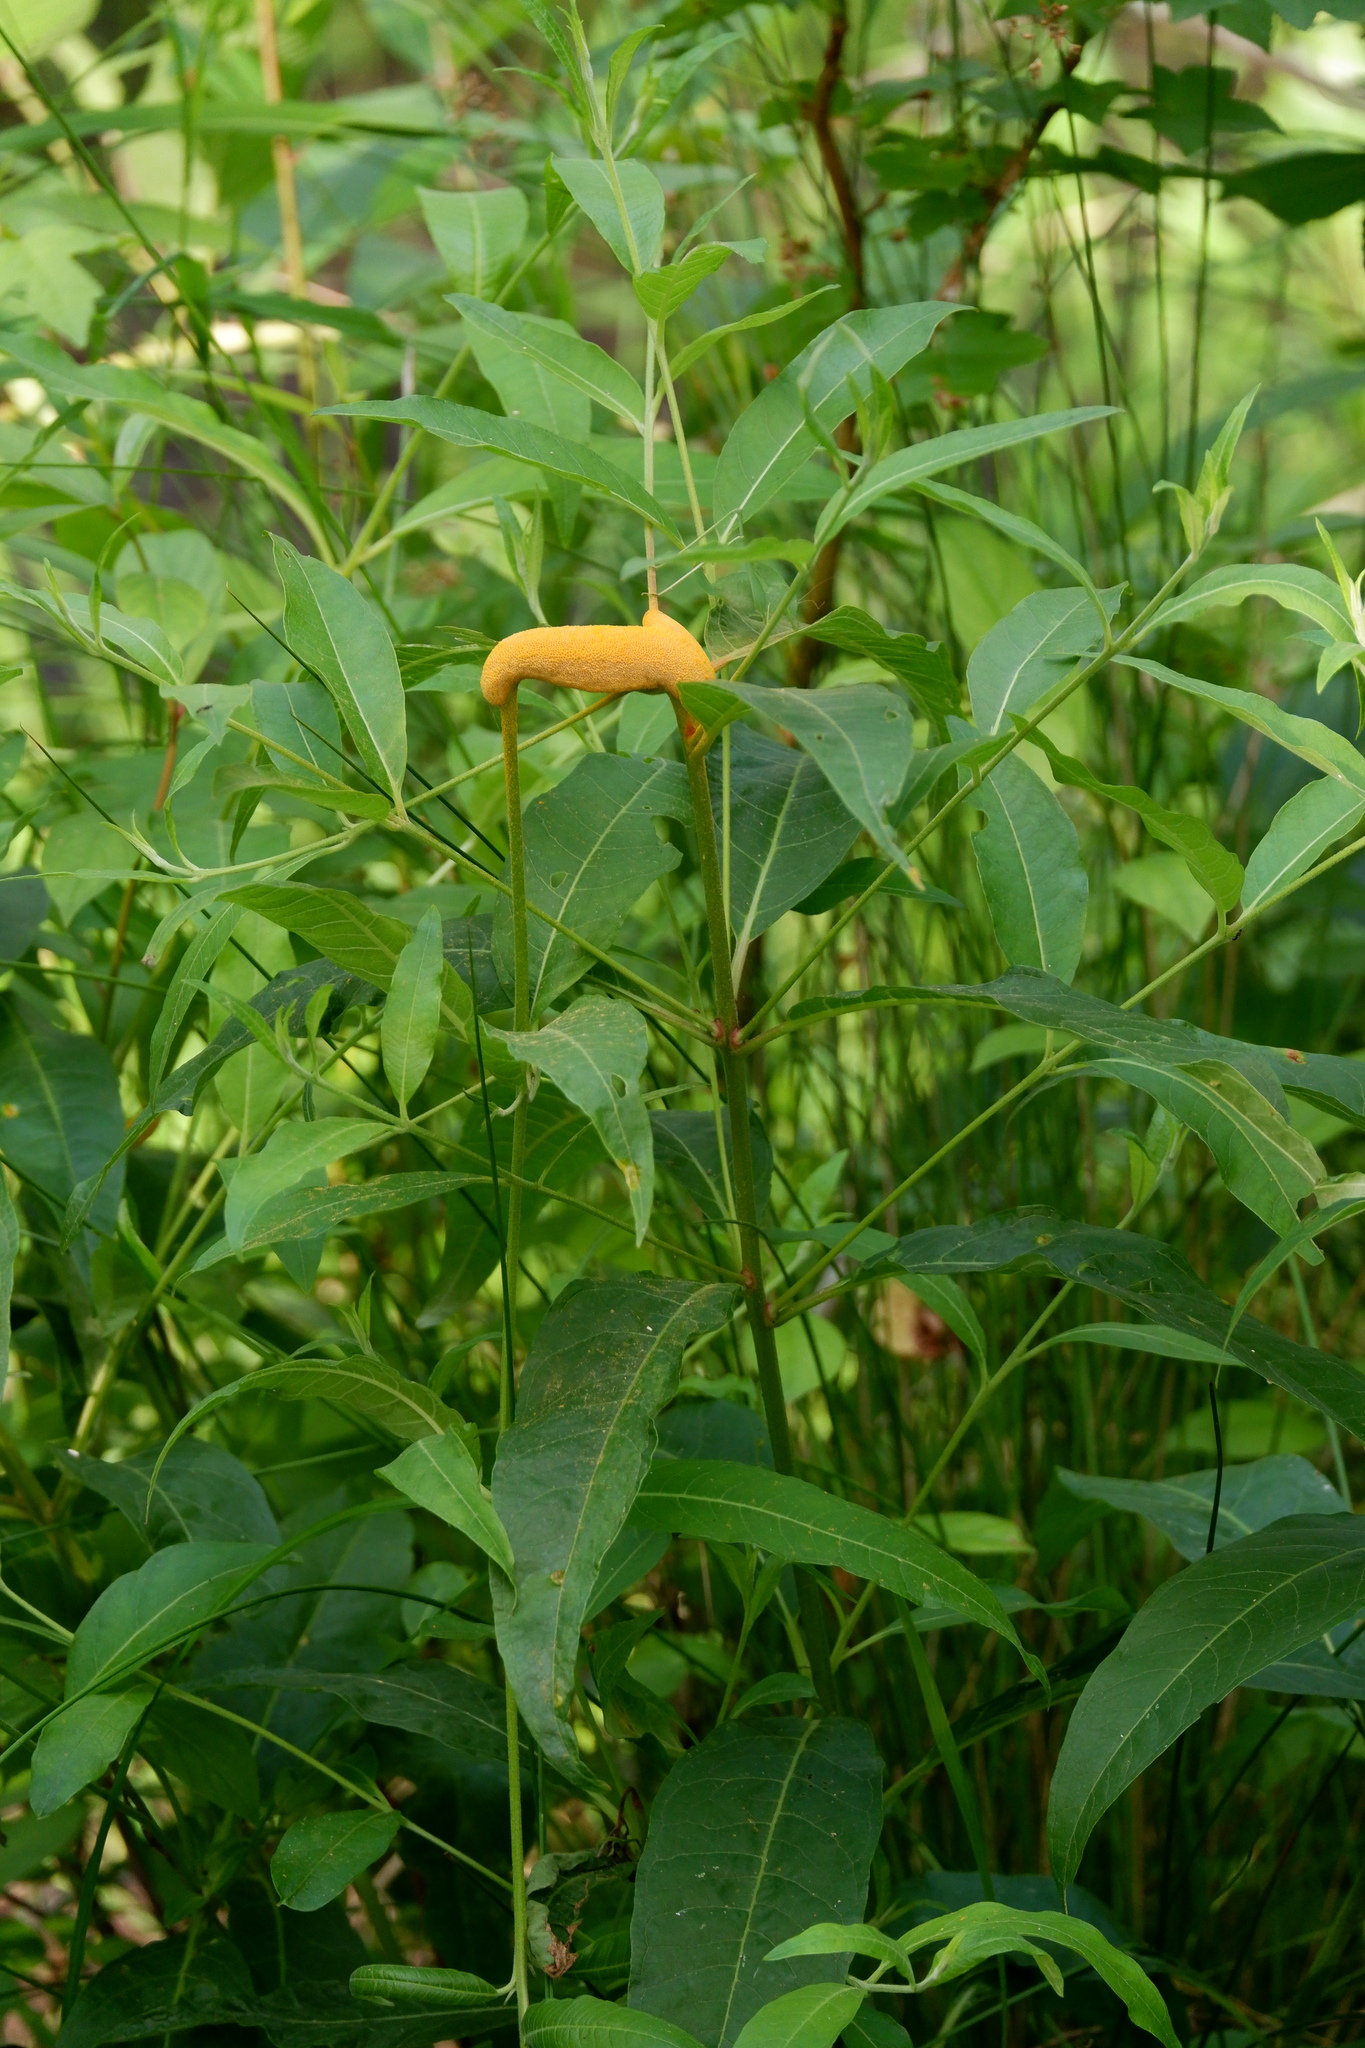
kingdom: Fungi
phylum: Basidiomycota
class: Pucciniomycetes
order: Pucciniales
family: Pucciniaceae
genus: Puccinia
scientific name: Puccinia minutissima
